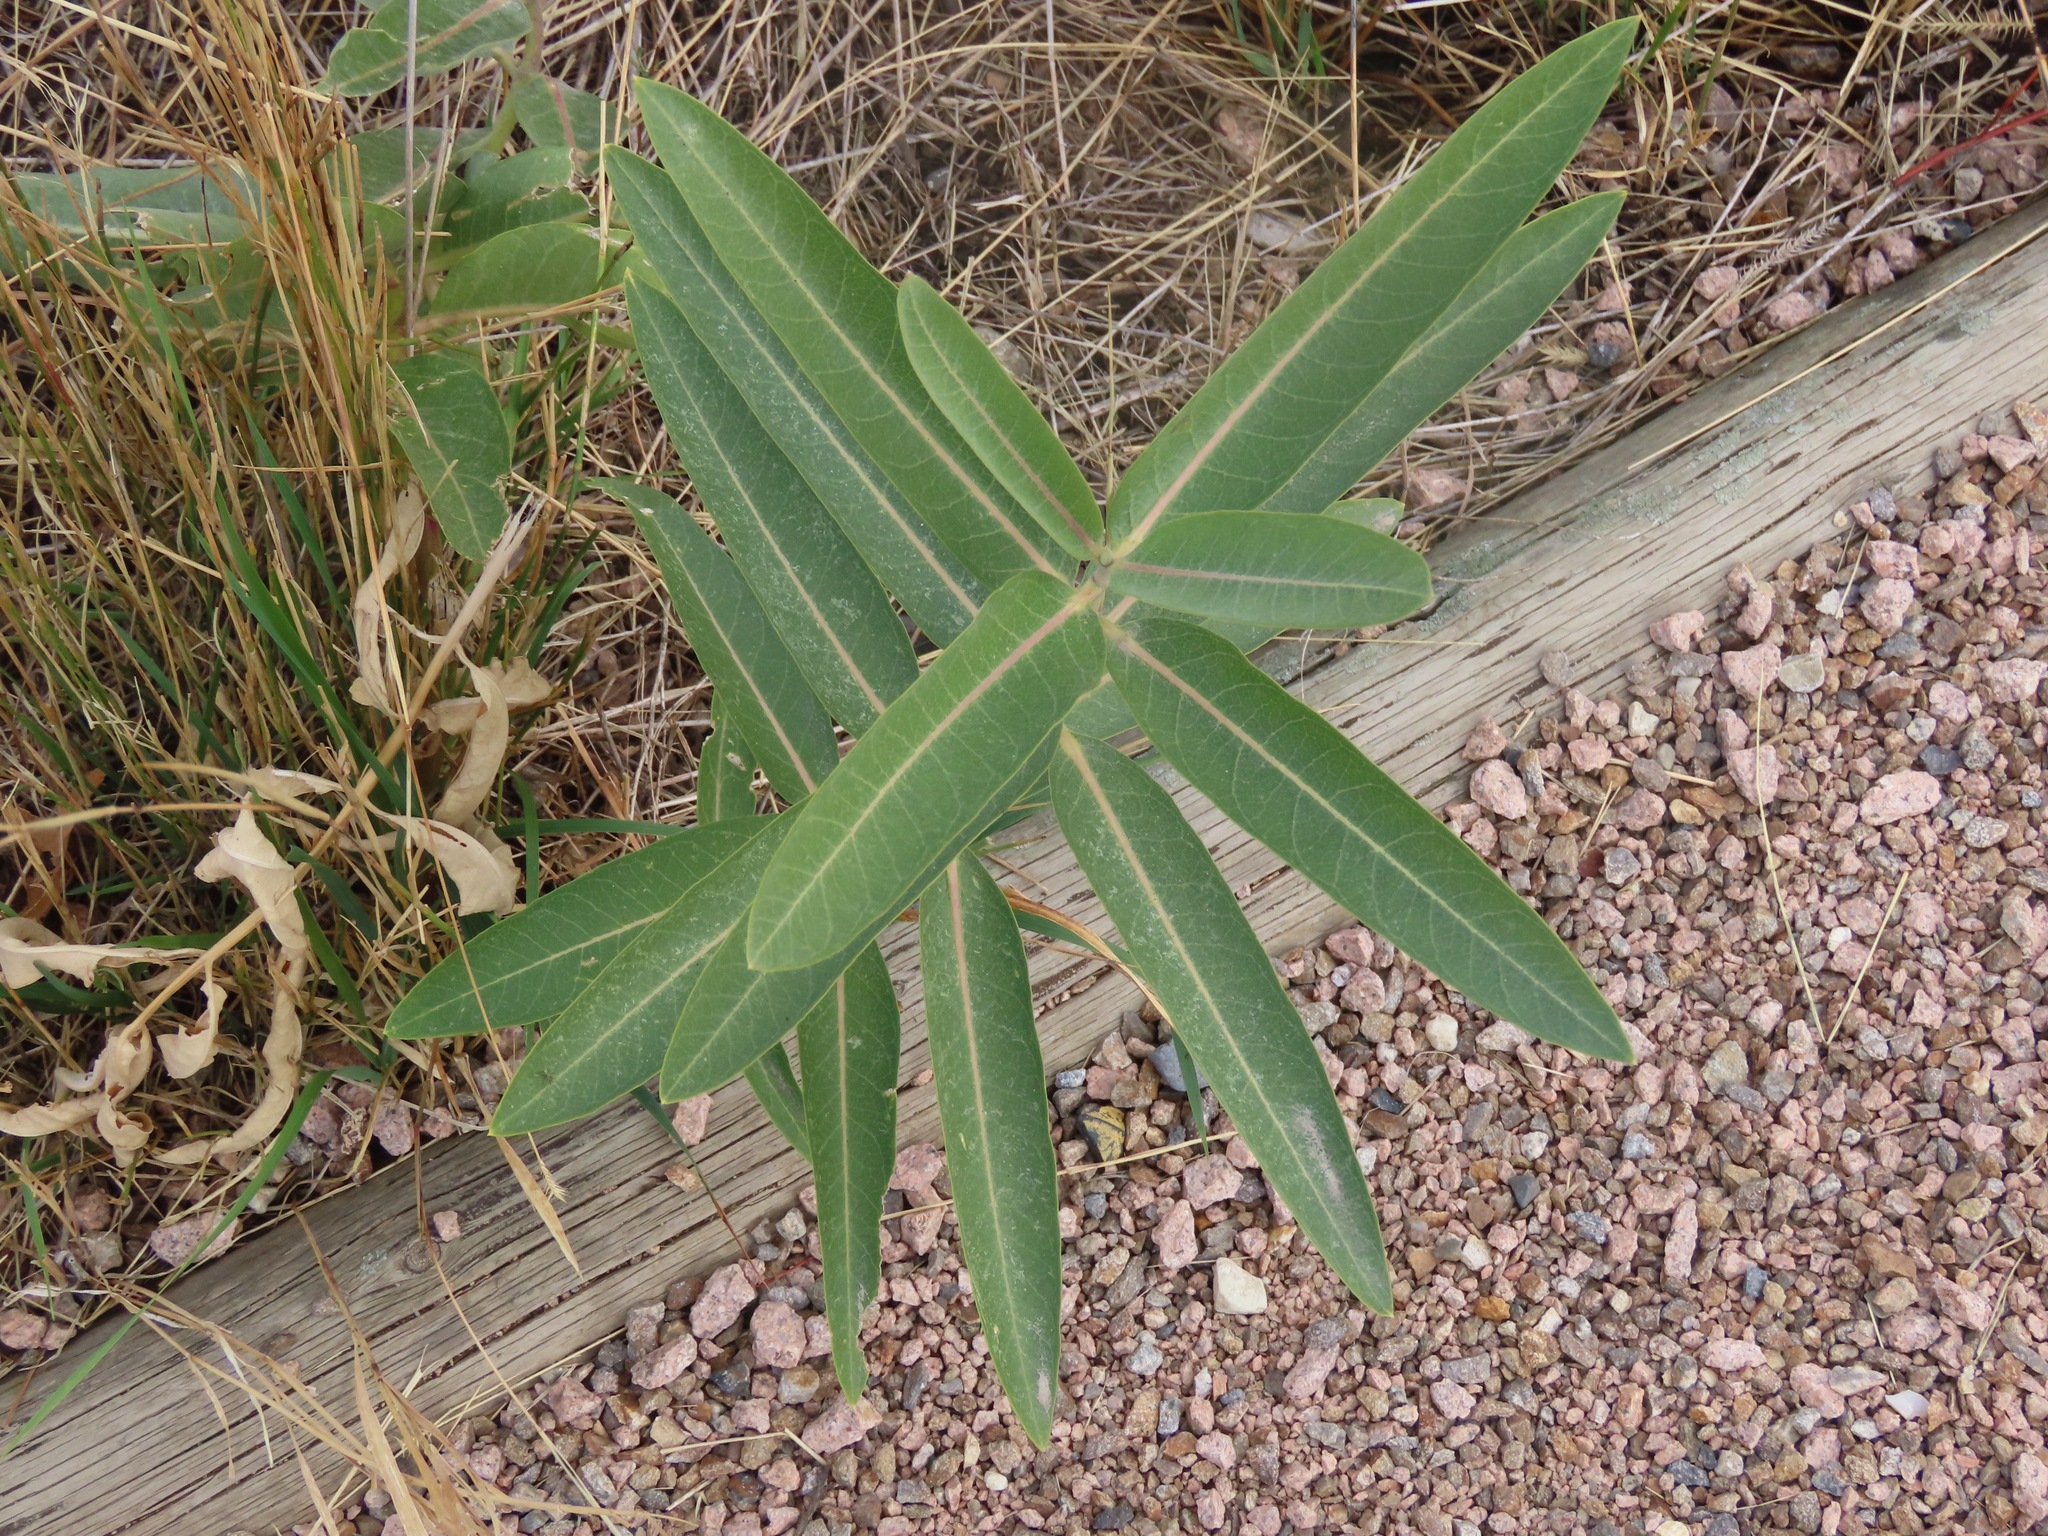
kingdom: Plantae
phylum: Tracheophyta
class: Magnoliopsida
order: Gentianales
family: Apocynaceae
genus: Asclepias
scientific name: Asclepias speciosa
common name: Showy milkweed
